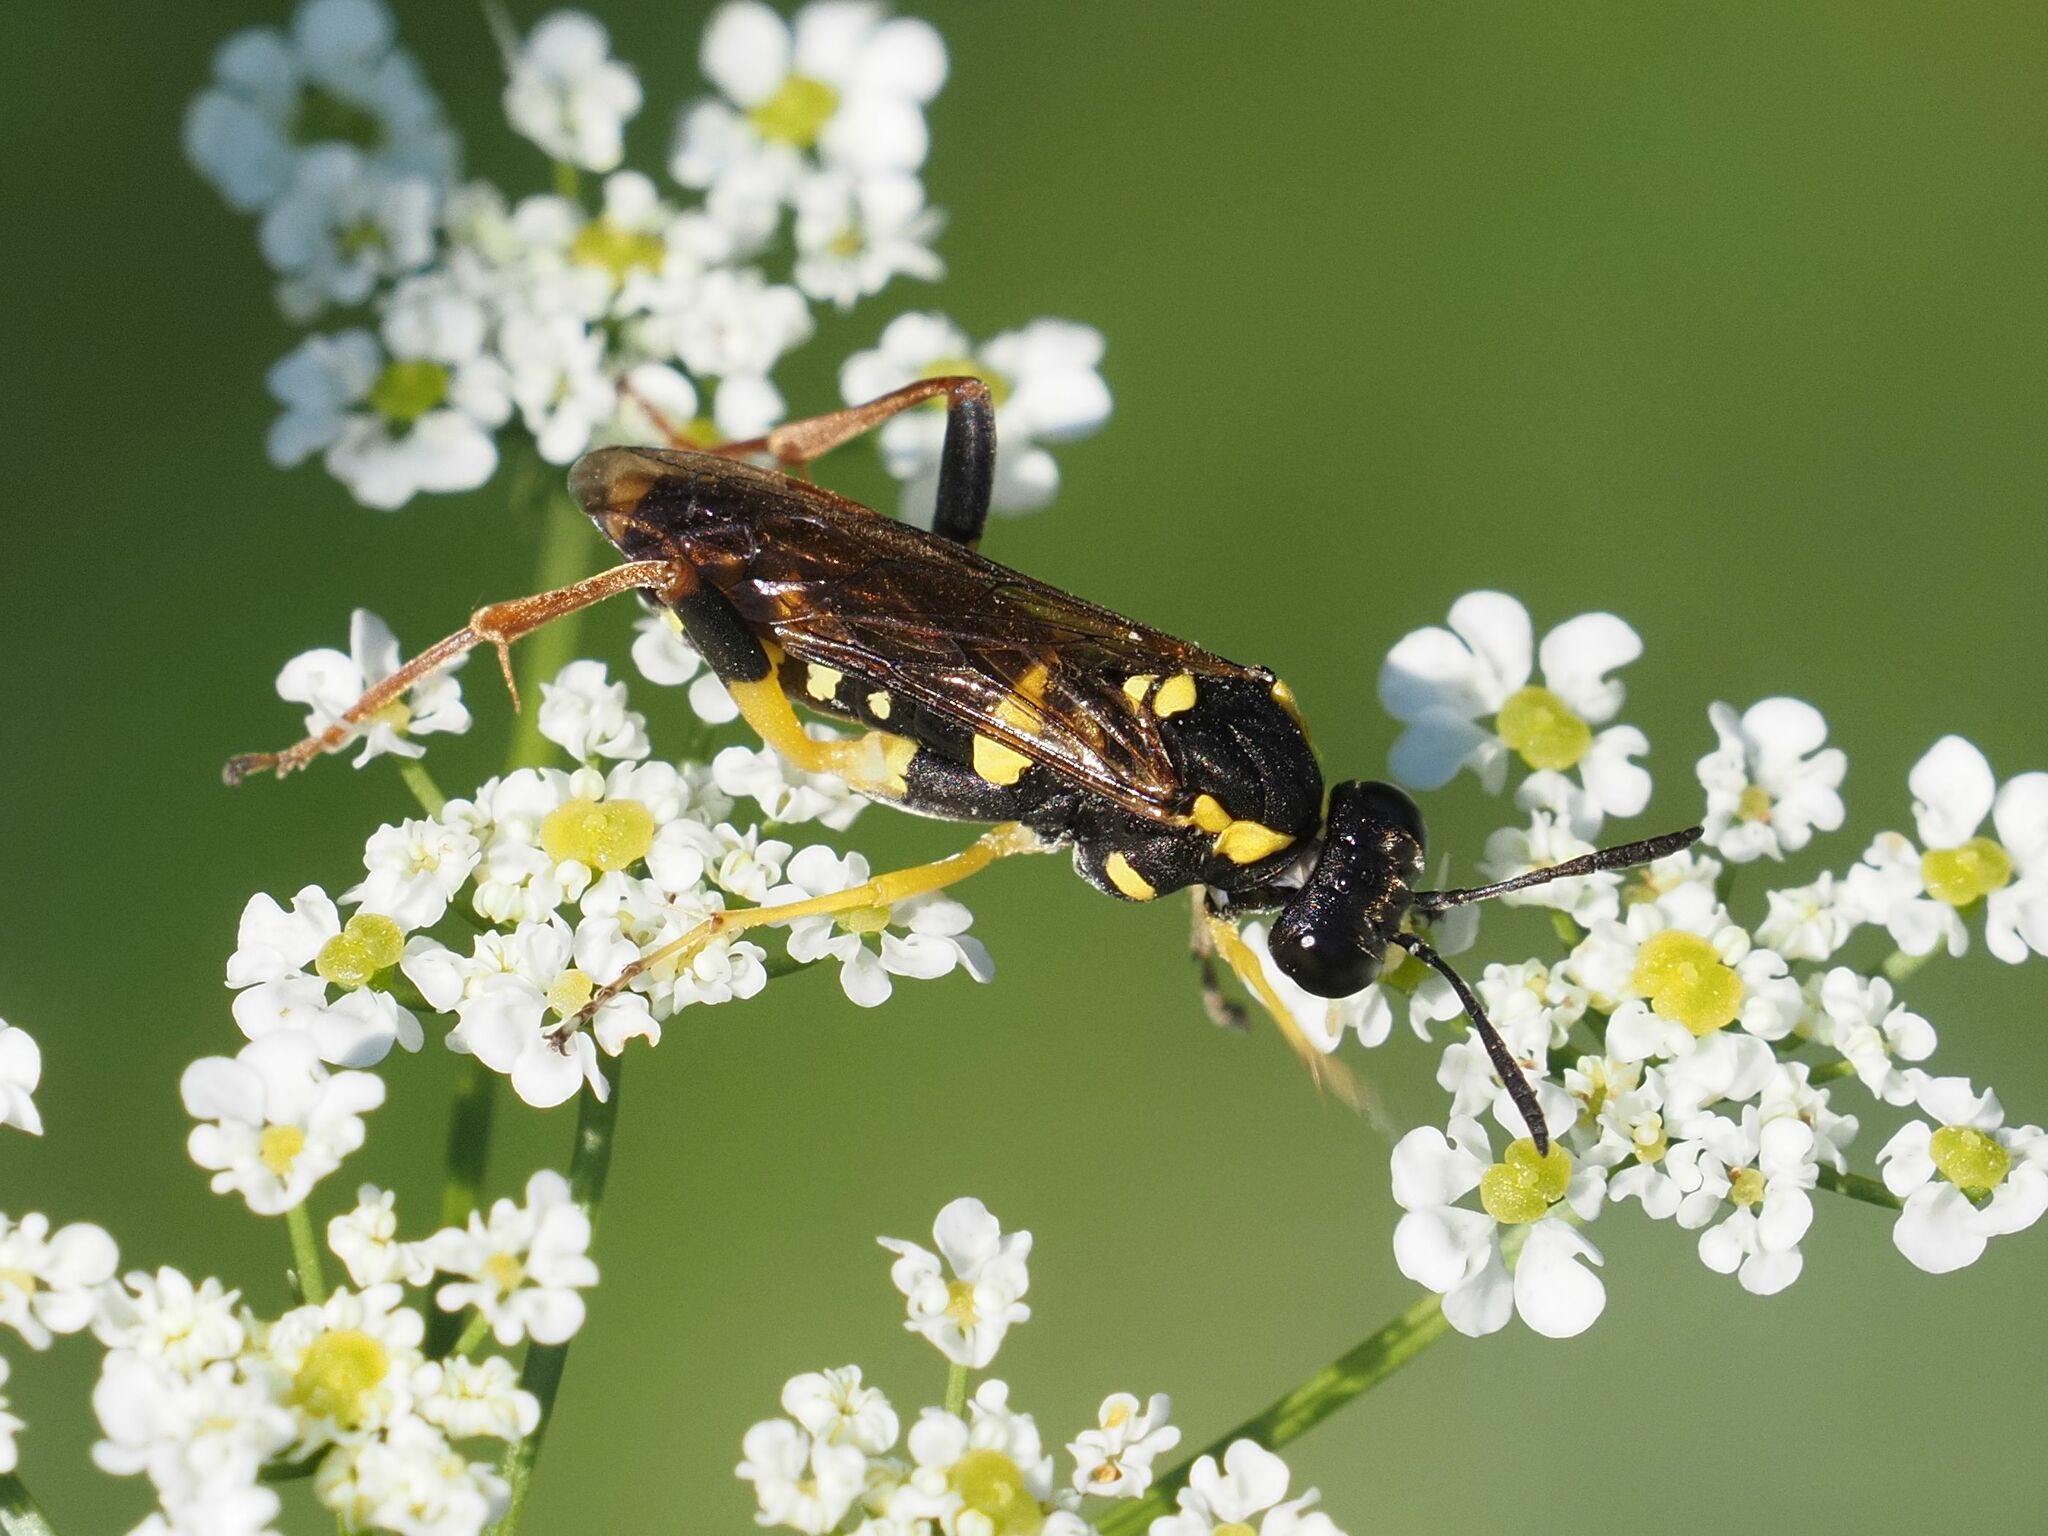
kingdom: Animalia
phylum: Arthropoda
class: Insecta
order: Hymenoptera
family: Tenthredinidae
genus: Macrophya
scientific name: Macrophya postica
